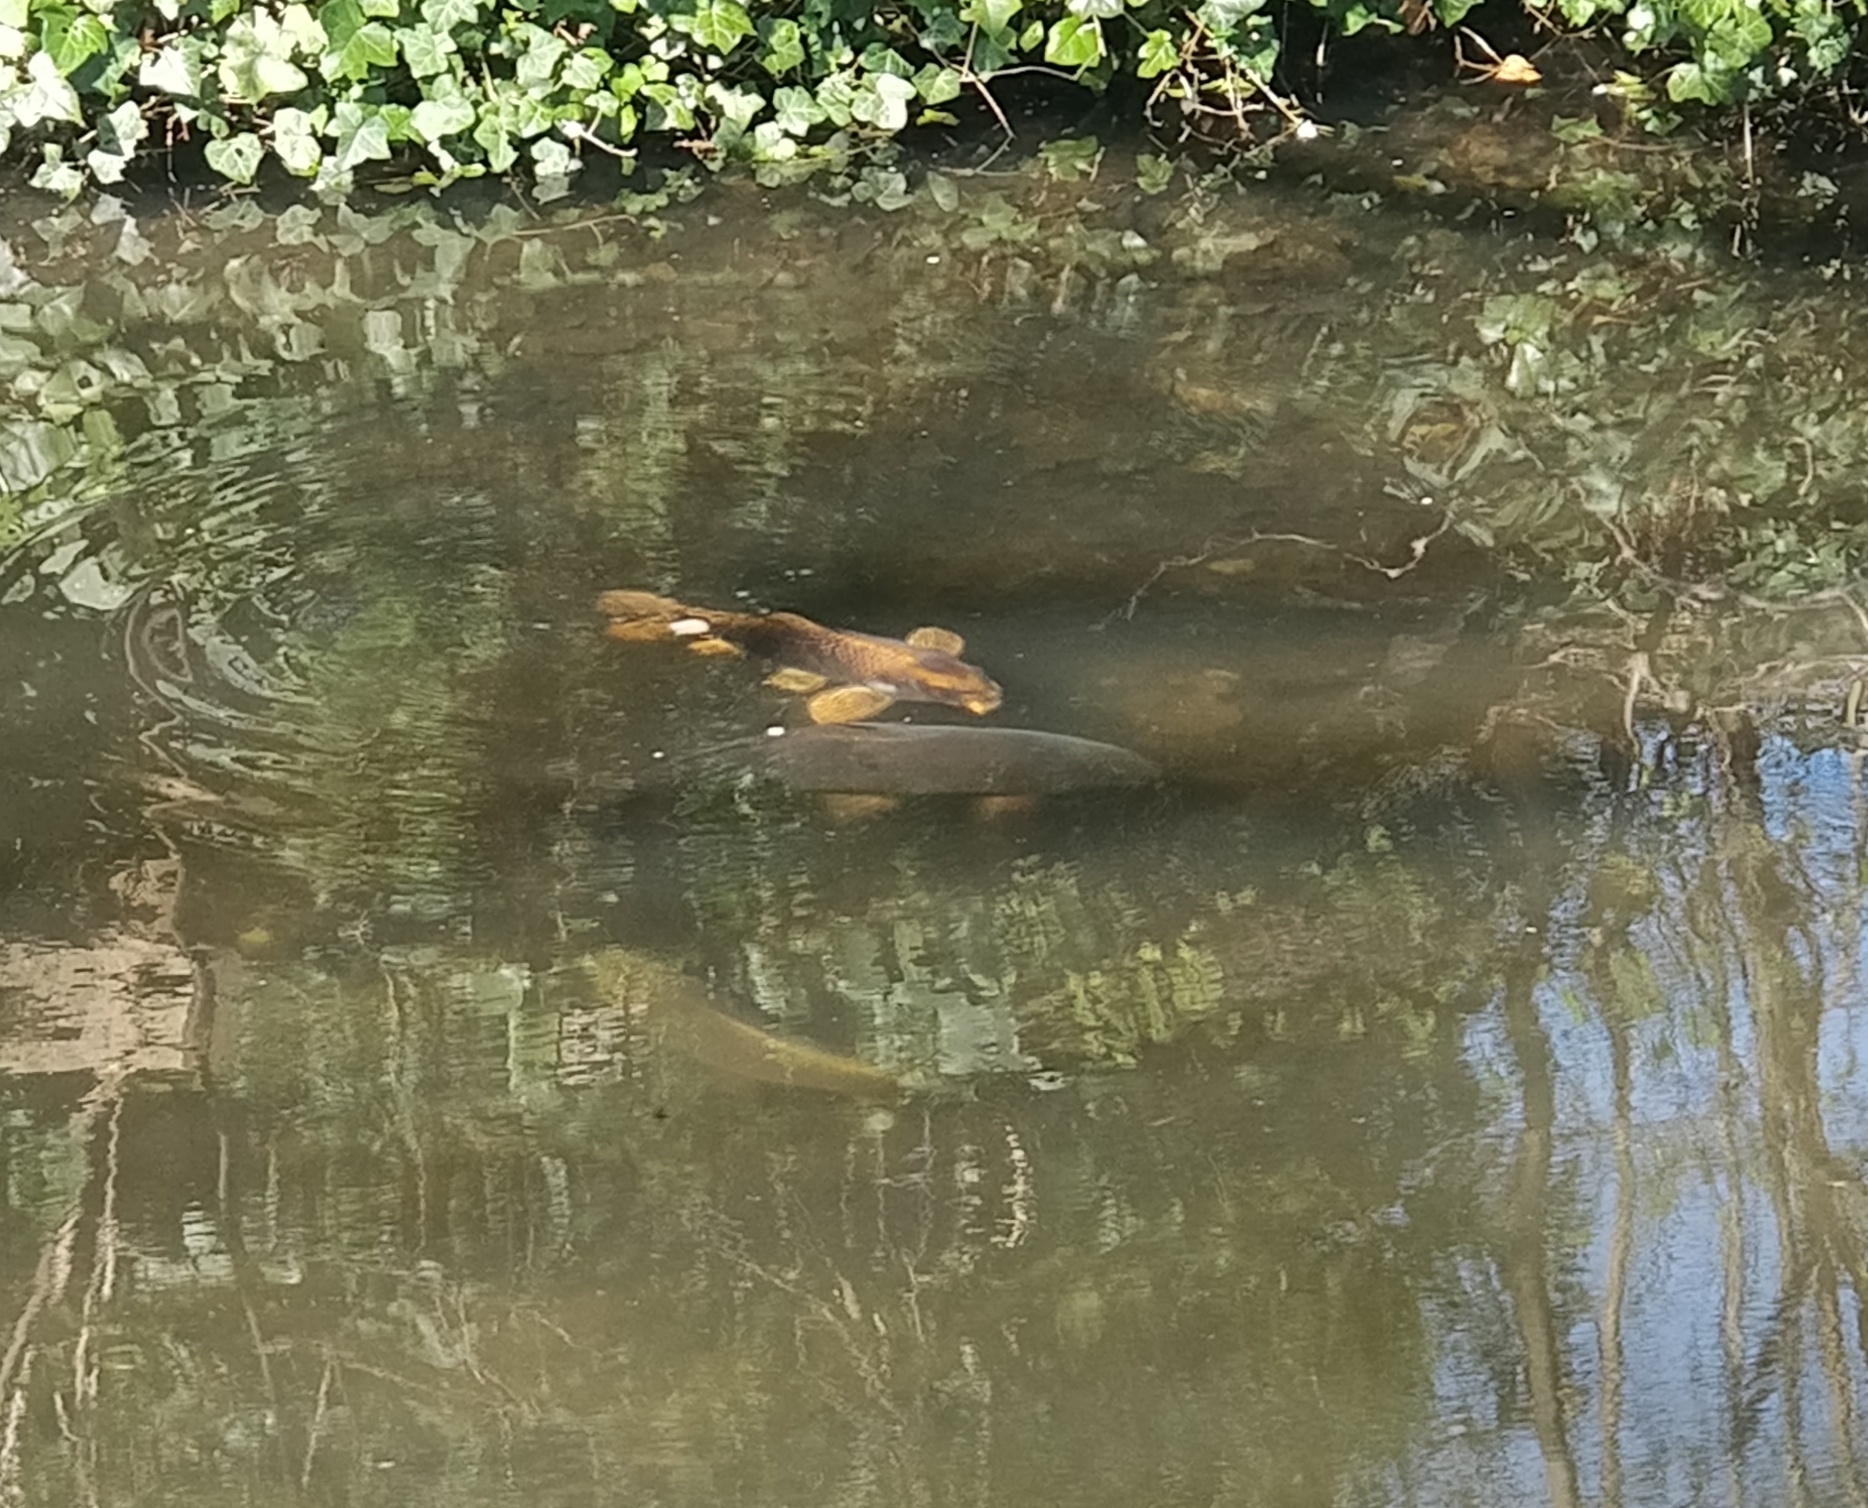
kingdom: Animalia
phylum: Chordata
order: Cypriniformes
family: Cyprinidae
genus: Cyprinus
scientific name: Cyprinus carpio
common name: Common carp
